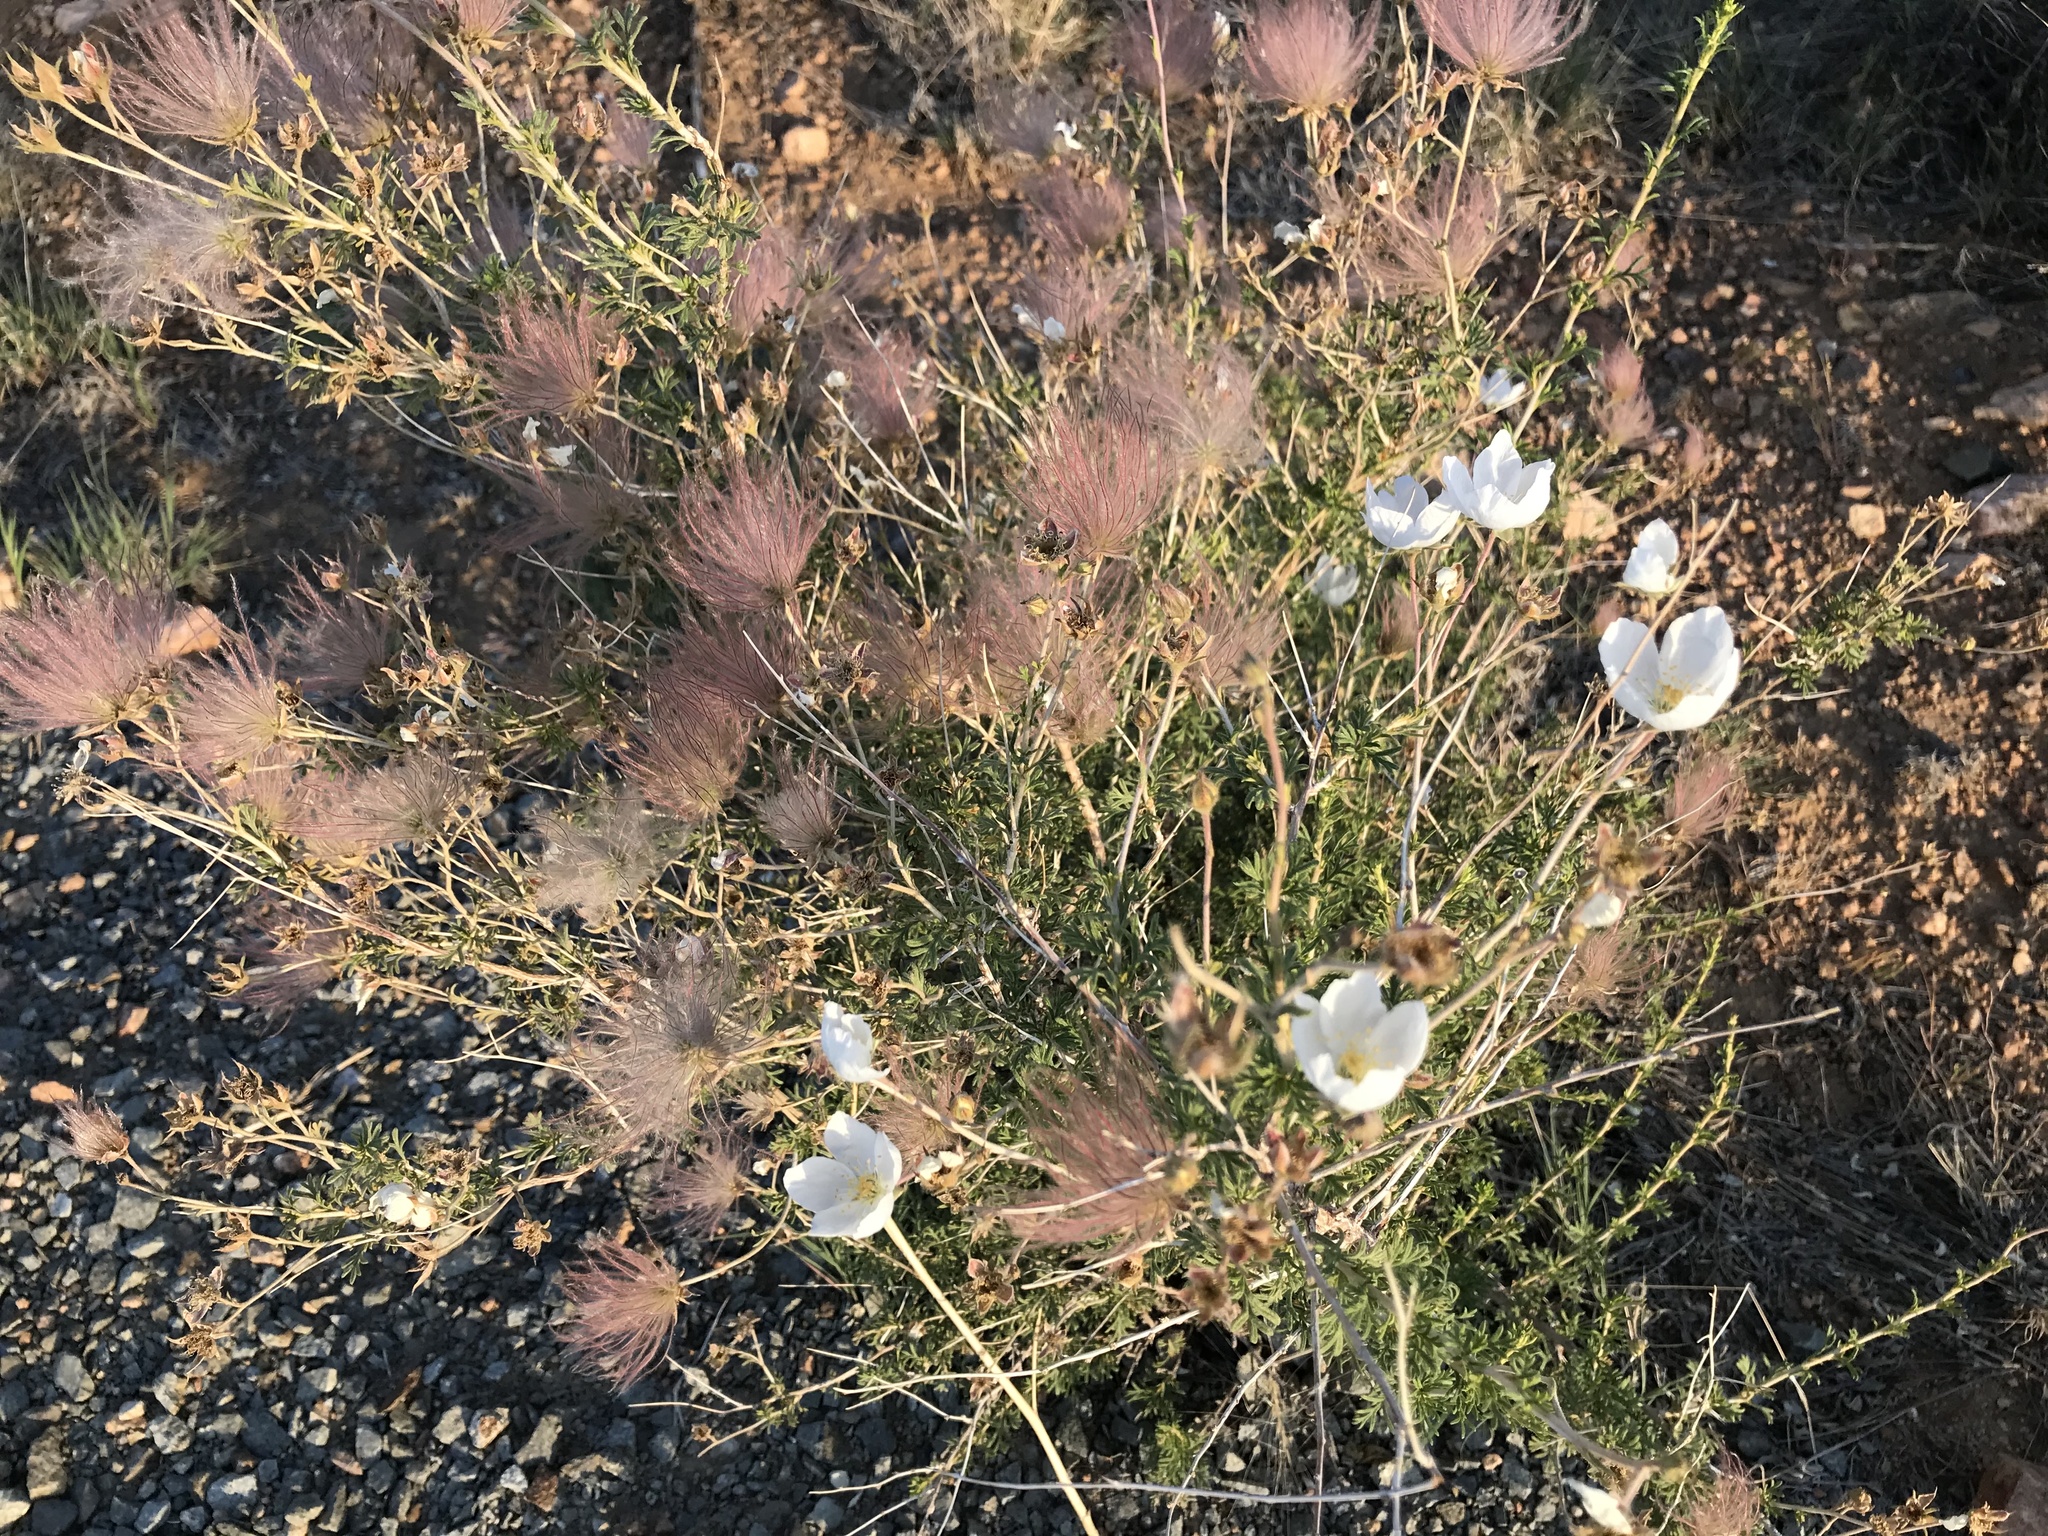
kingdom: Plantae
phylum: Tracheophyta
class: Magnoliopsida
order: Rosales
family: Rosaceae
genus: Fallugia
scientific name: Fallugia paradoxa
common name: Apache-plume
